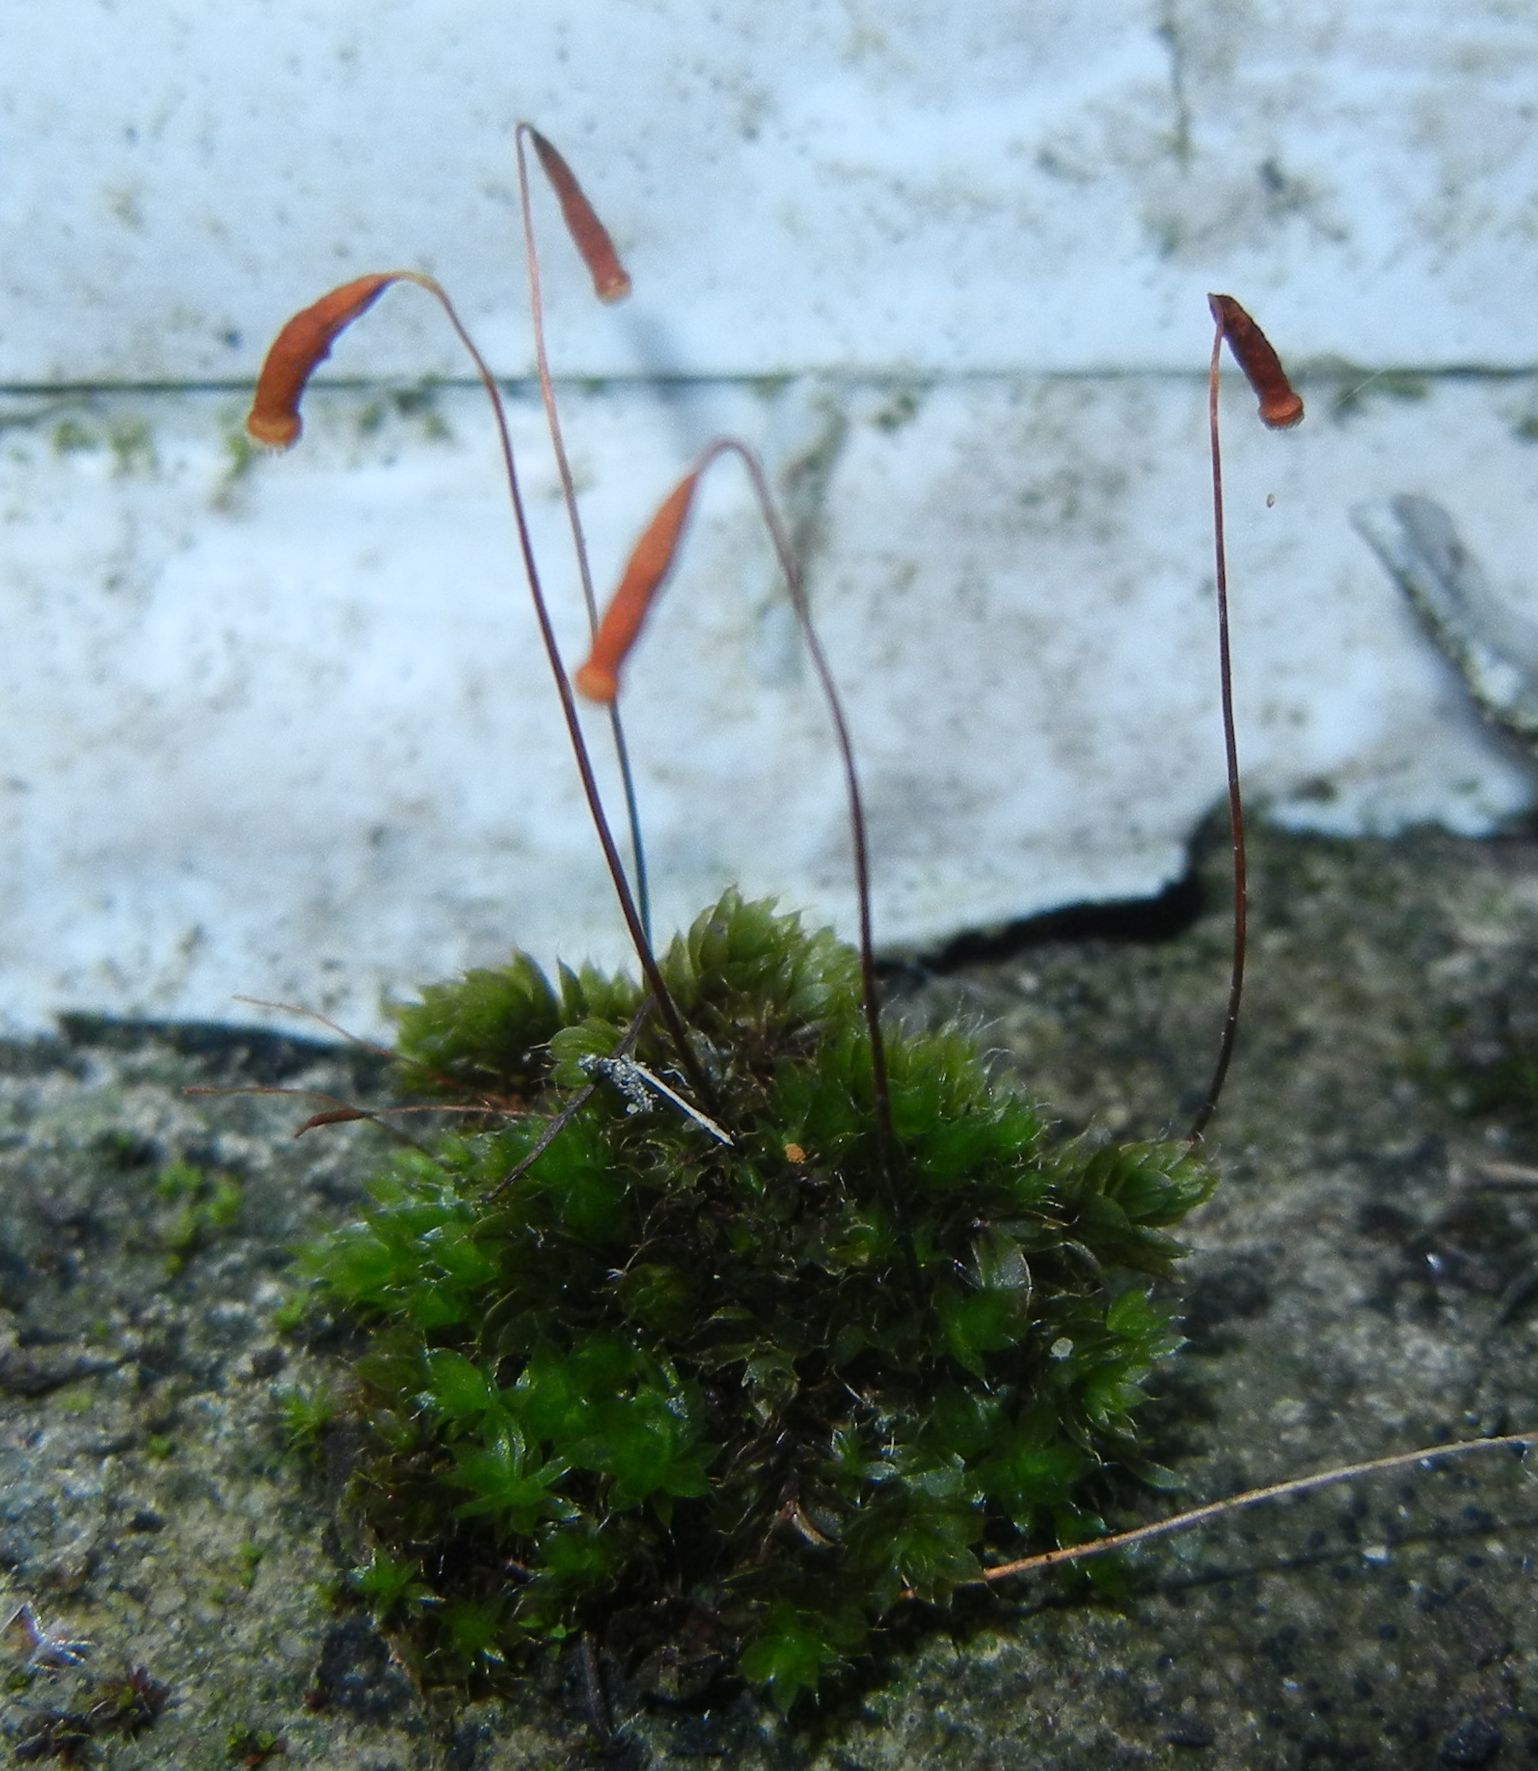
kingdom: Plantae
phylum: Bryophyta
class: Bryopsida
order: Bryales
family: Bryaceae
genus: Rosulabryum
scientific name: Rosulabryum capillare
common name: Capillary thread-moss
